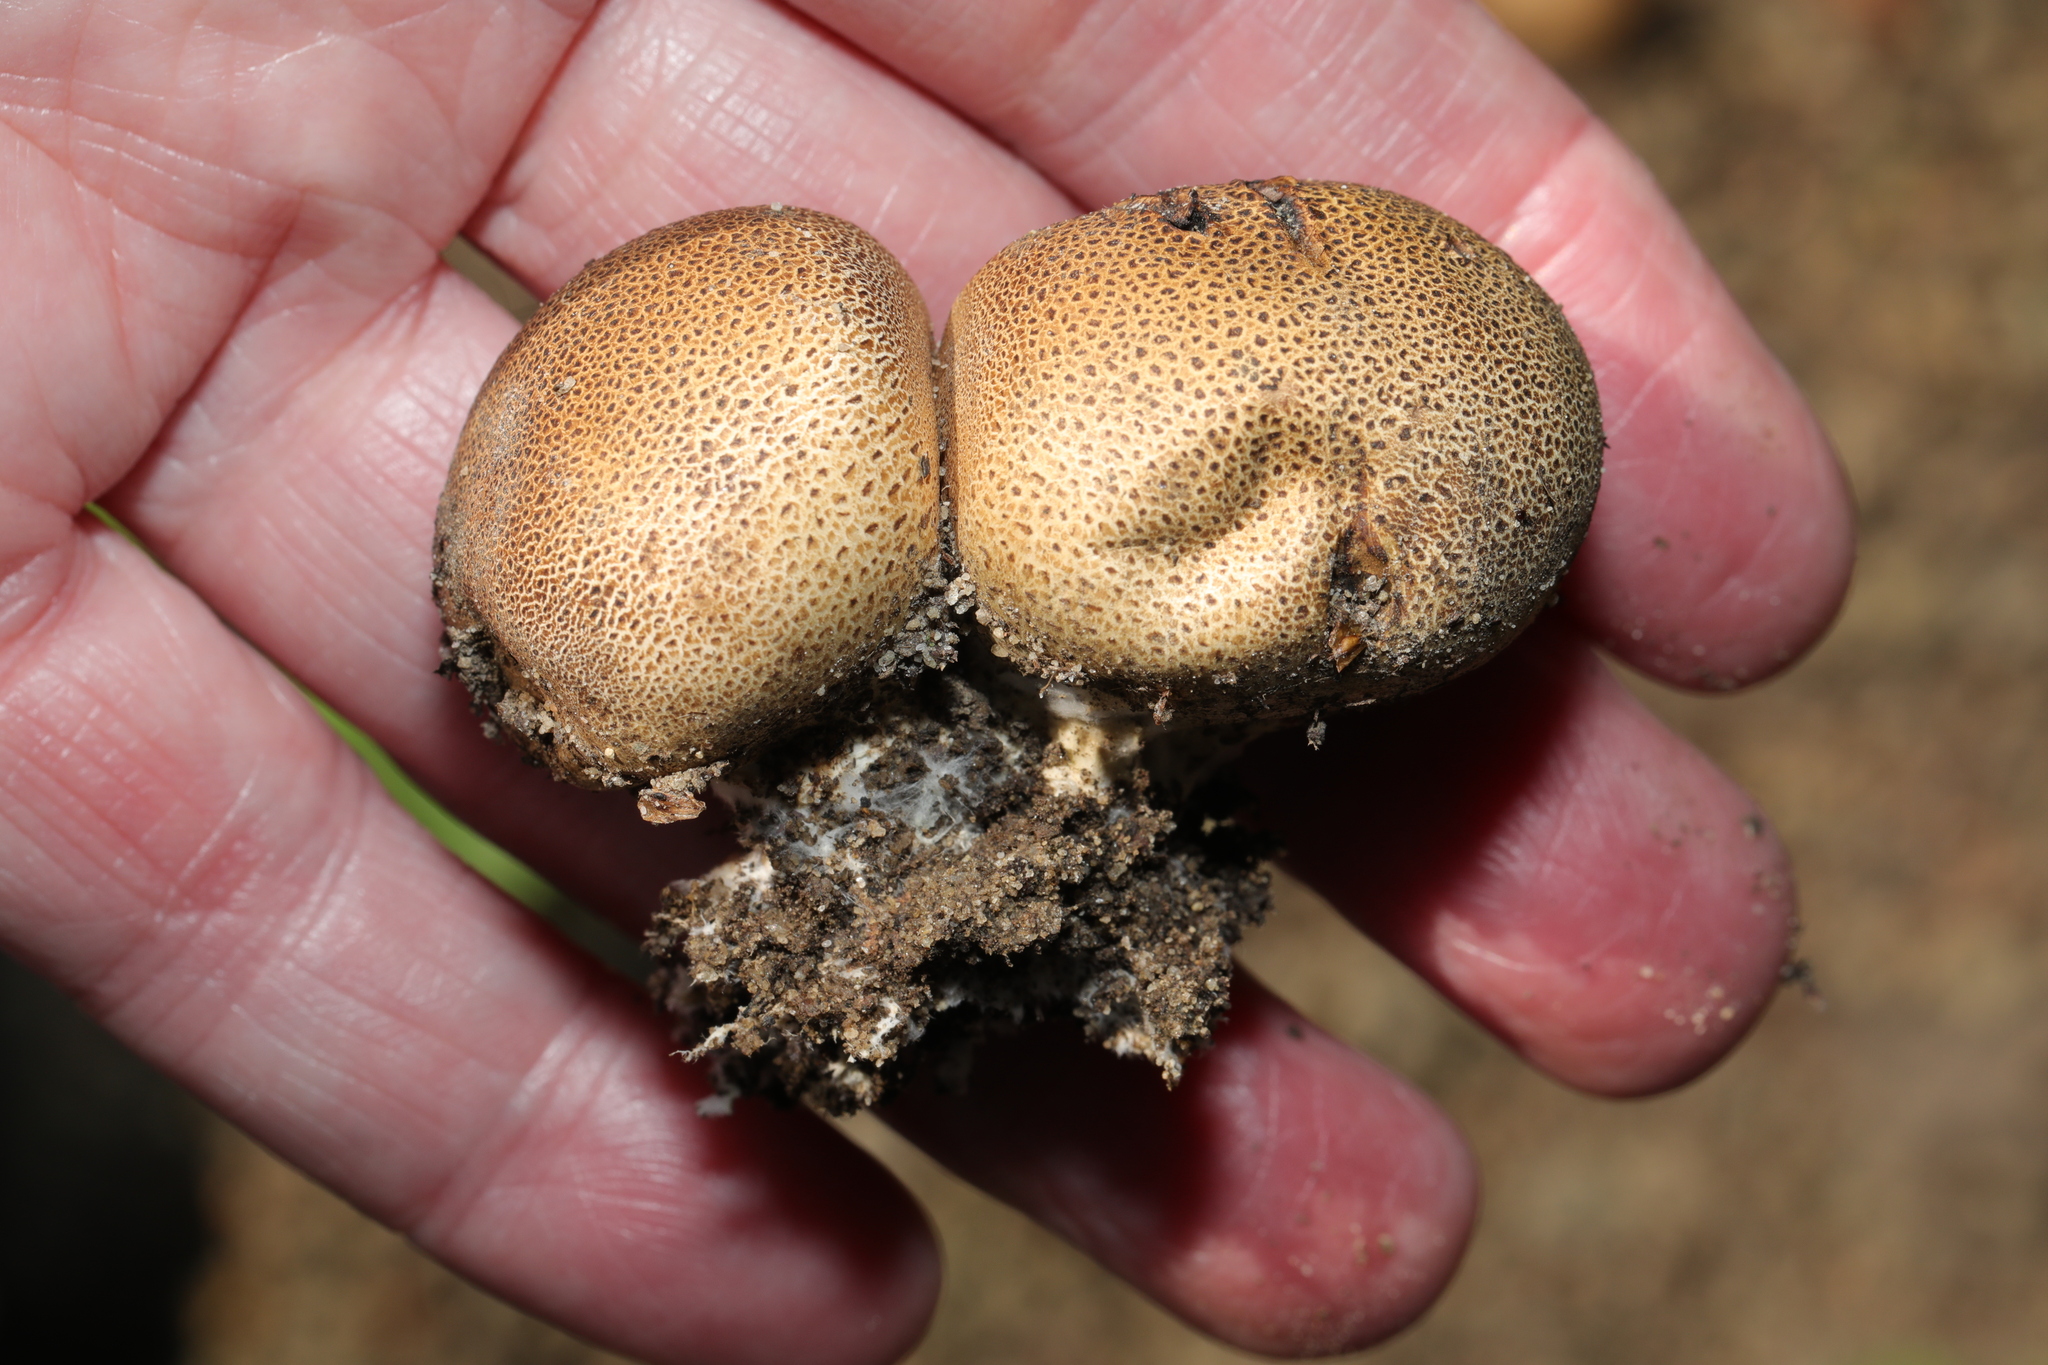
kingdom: Fungi
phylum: Basidiomycota
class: Agaricomycetes
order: Boletales
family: Sclerodermataceae
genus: Scleroderma
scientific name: Scleroderma citrinum
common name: Common earthball
